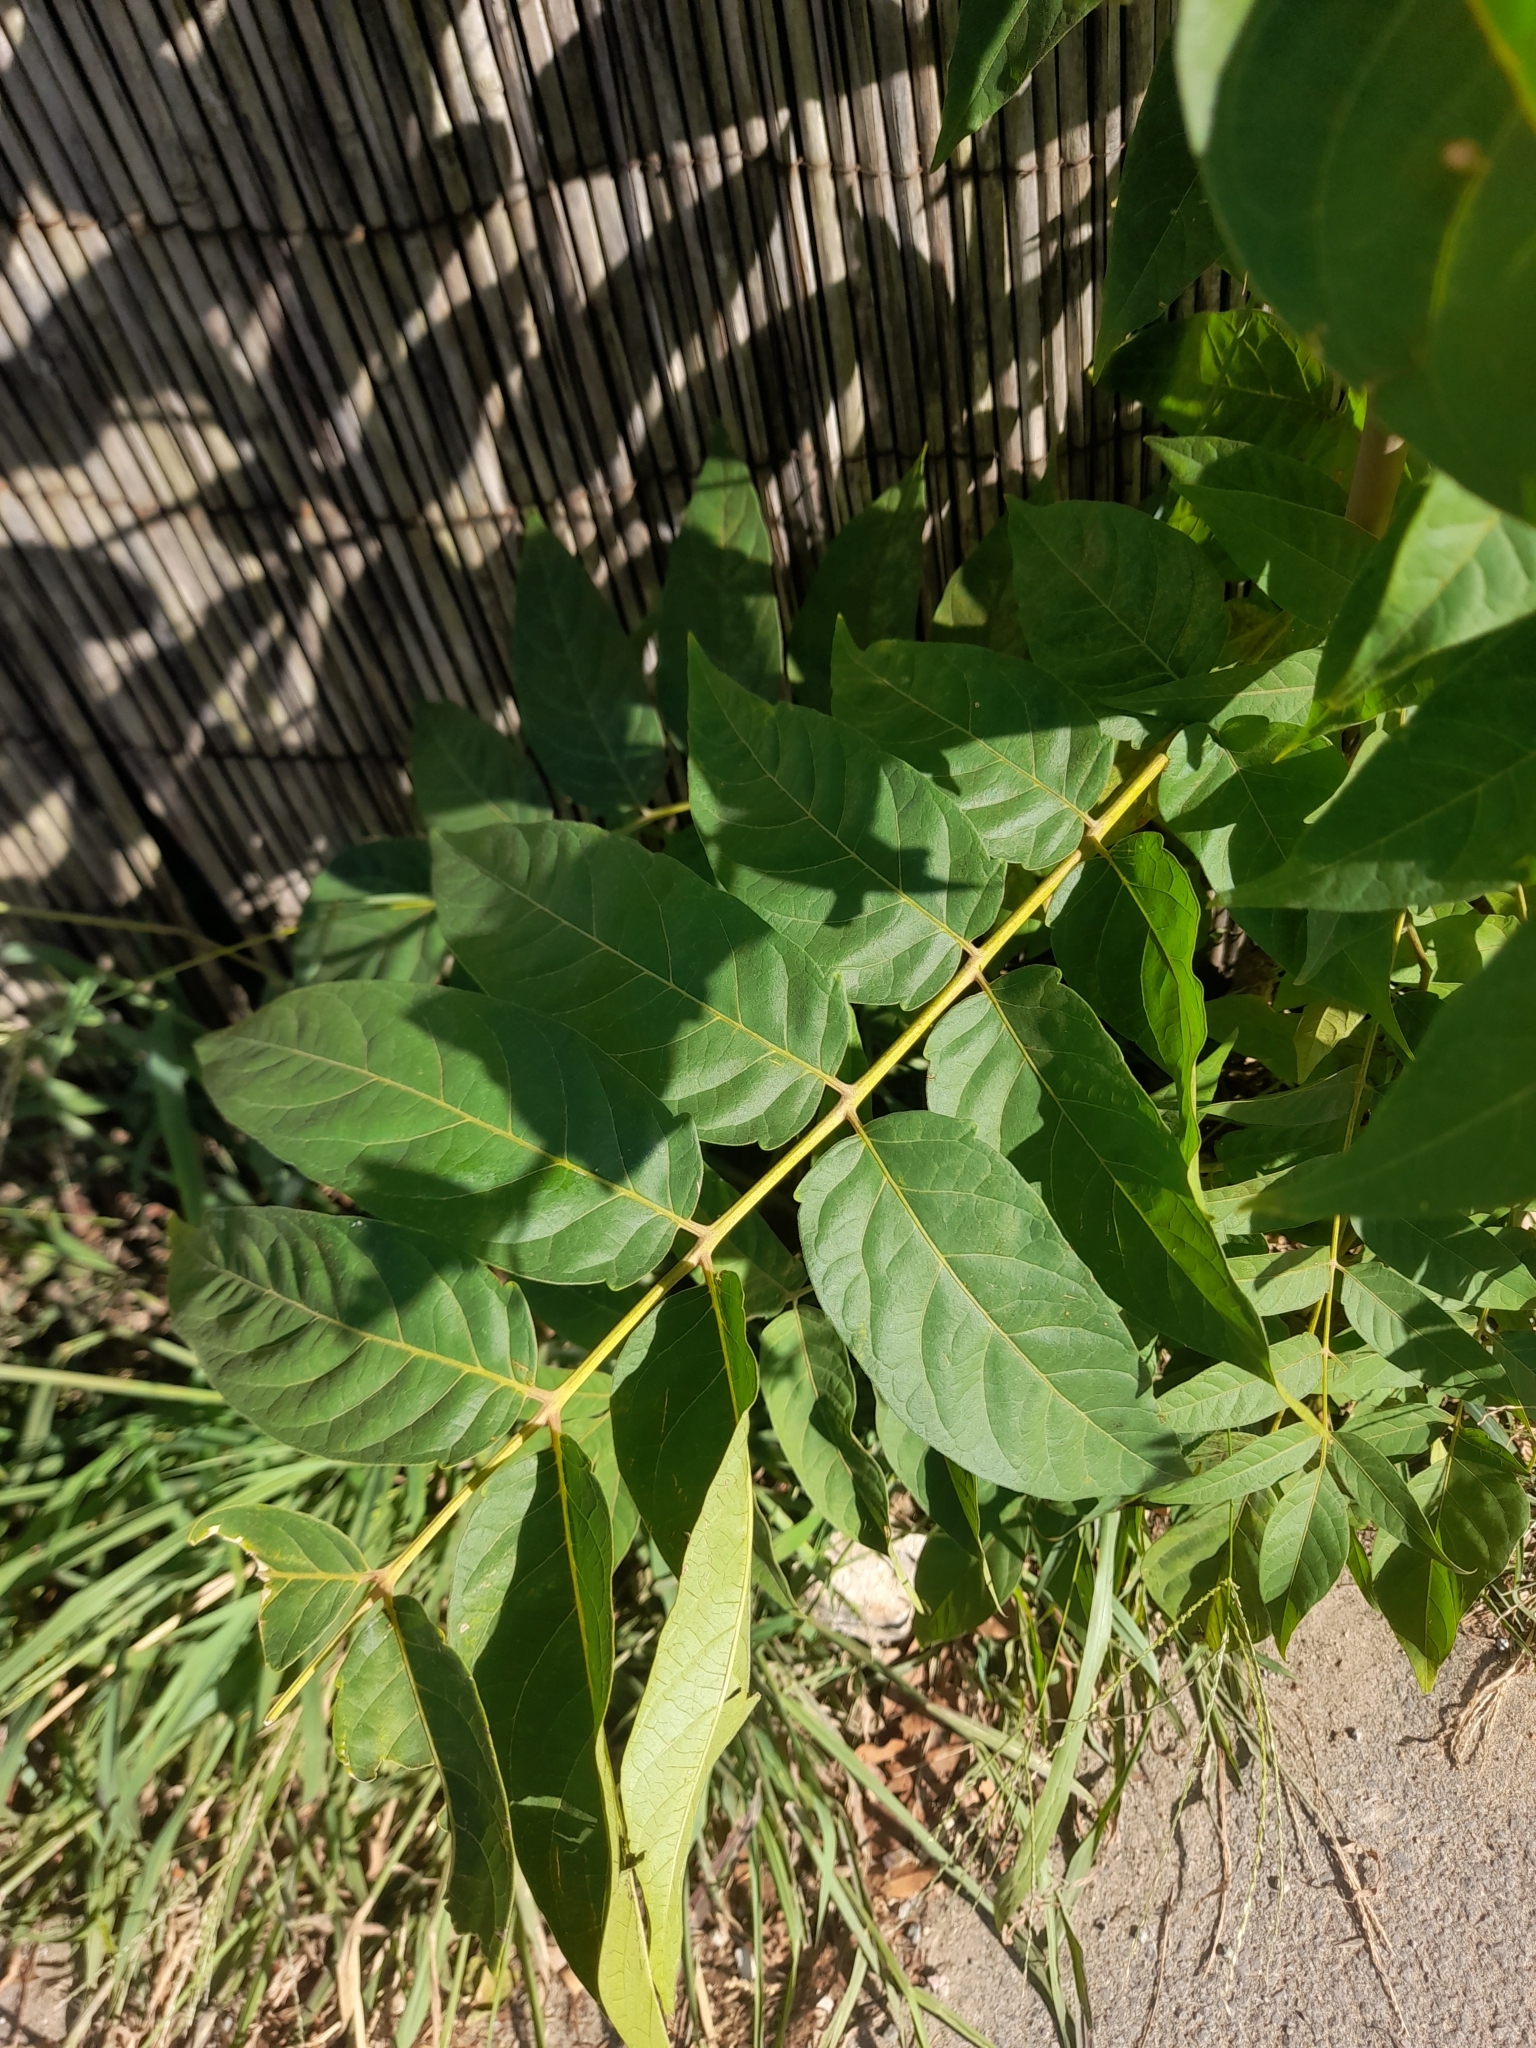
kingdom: Plantae
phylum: Tracheophyta
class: Magnoliopsida
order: Sapindales
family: Simaroubaceae
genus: Ailanthus
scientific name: Ailanthus altissima
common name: Tree-of-heaven
